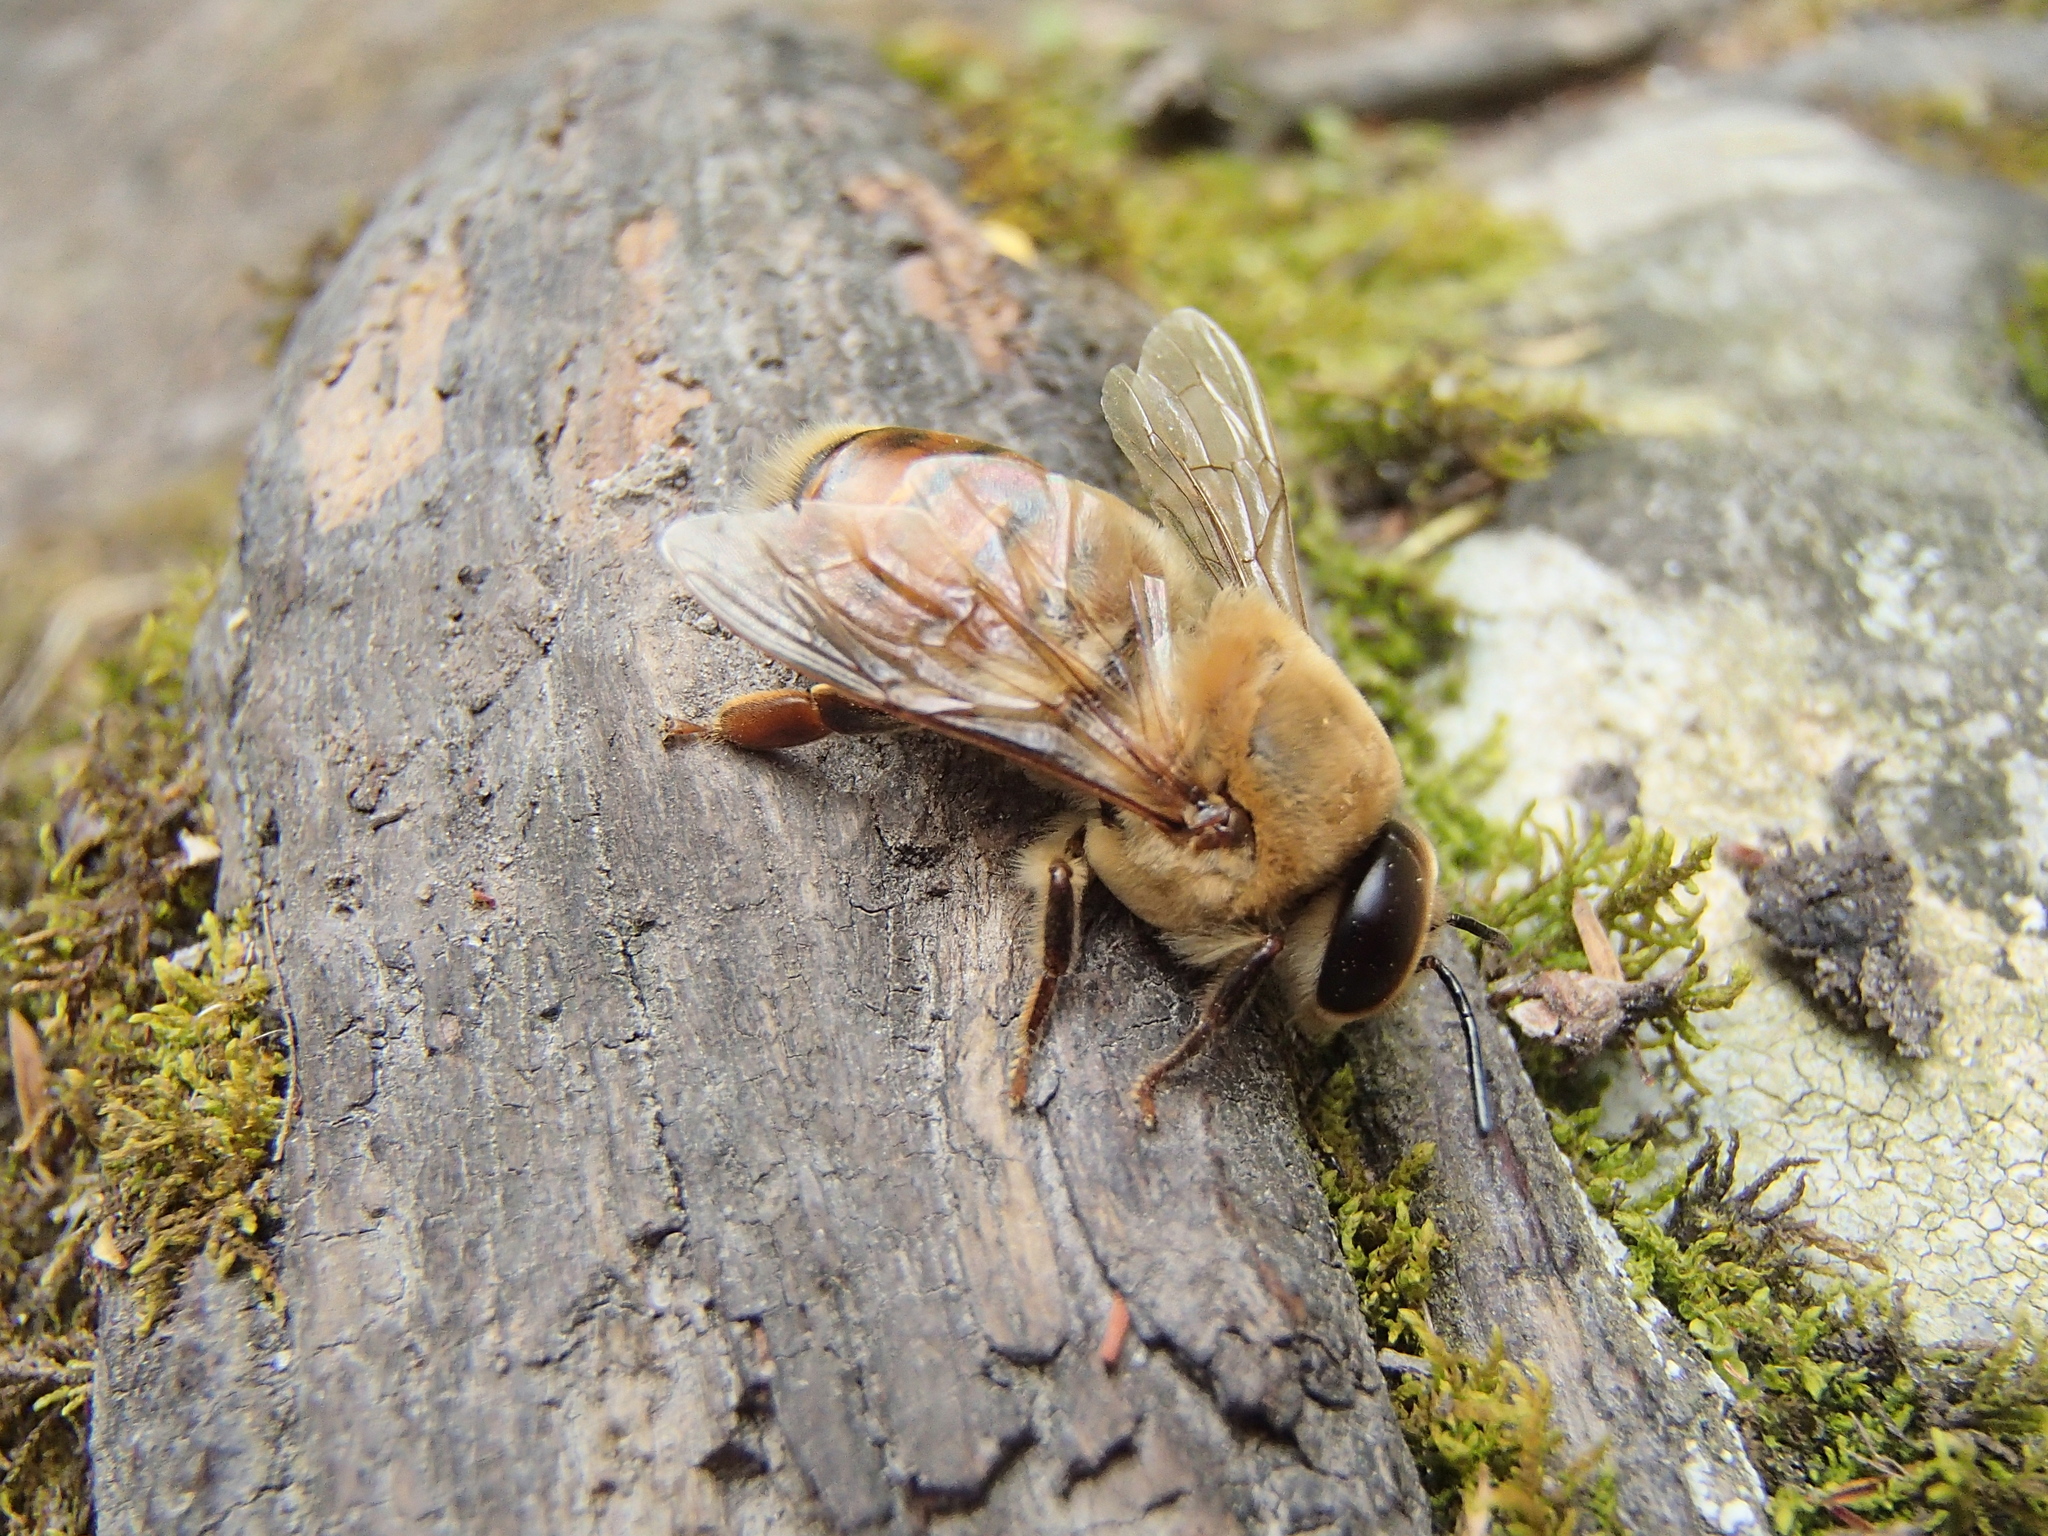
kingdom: Animalia
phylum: Arthropoda
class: Insecta
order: Hymenoptera
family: Apidae
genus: Apis
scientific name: Apis mellifera
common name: Honey bee
